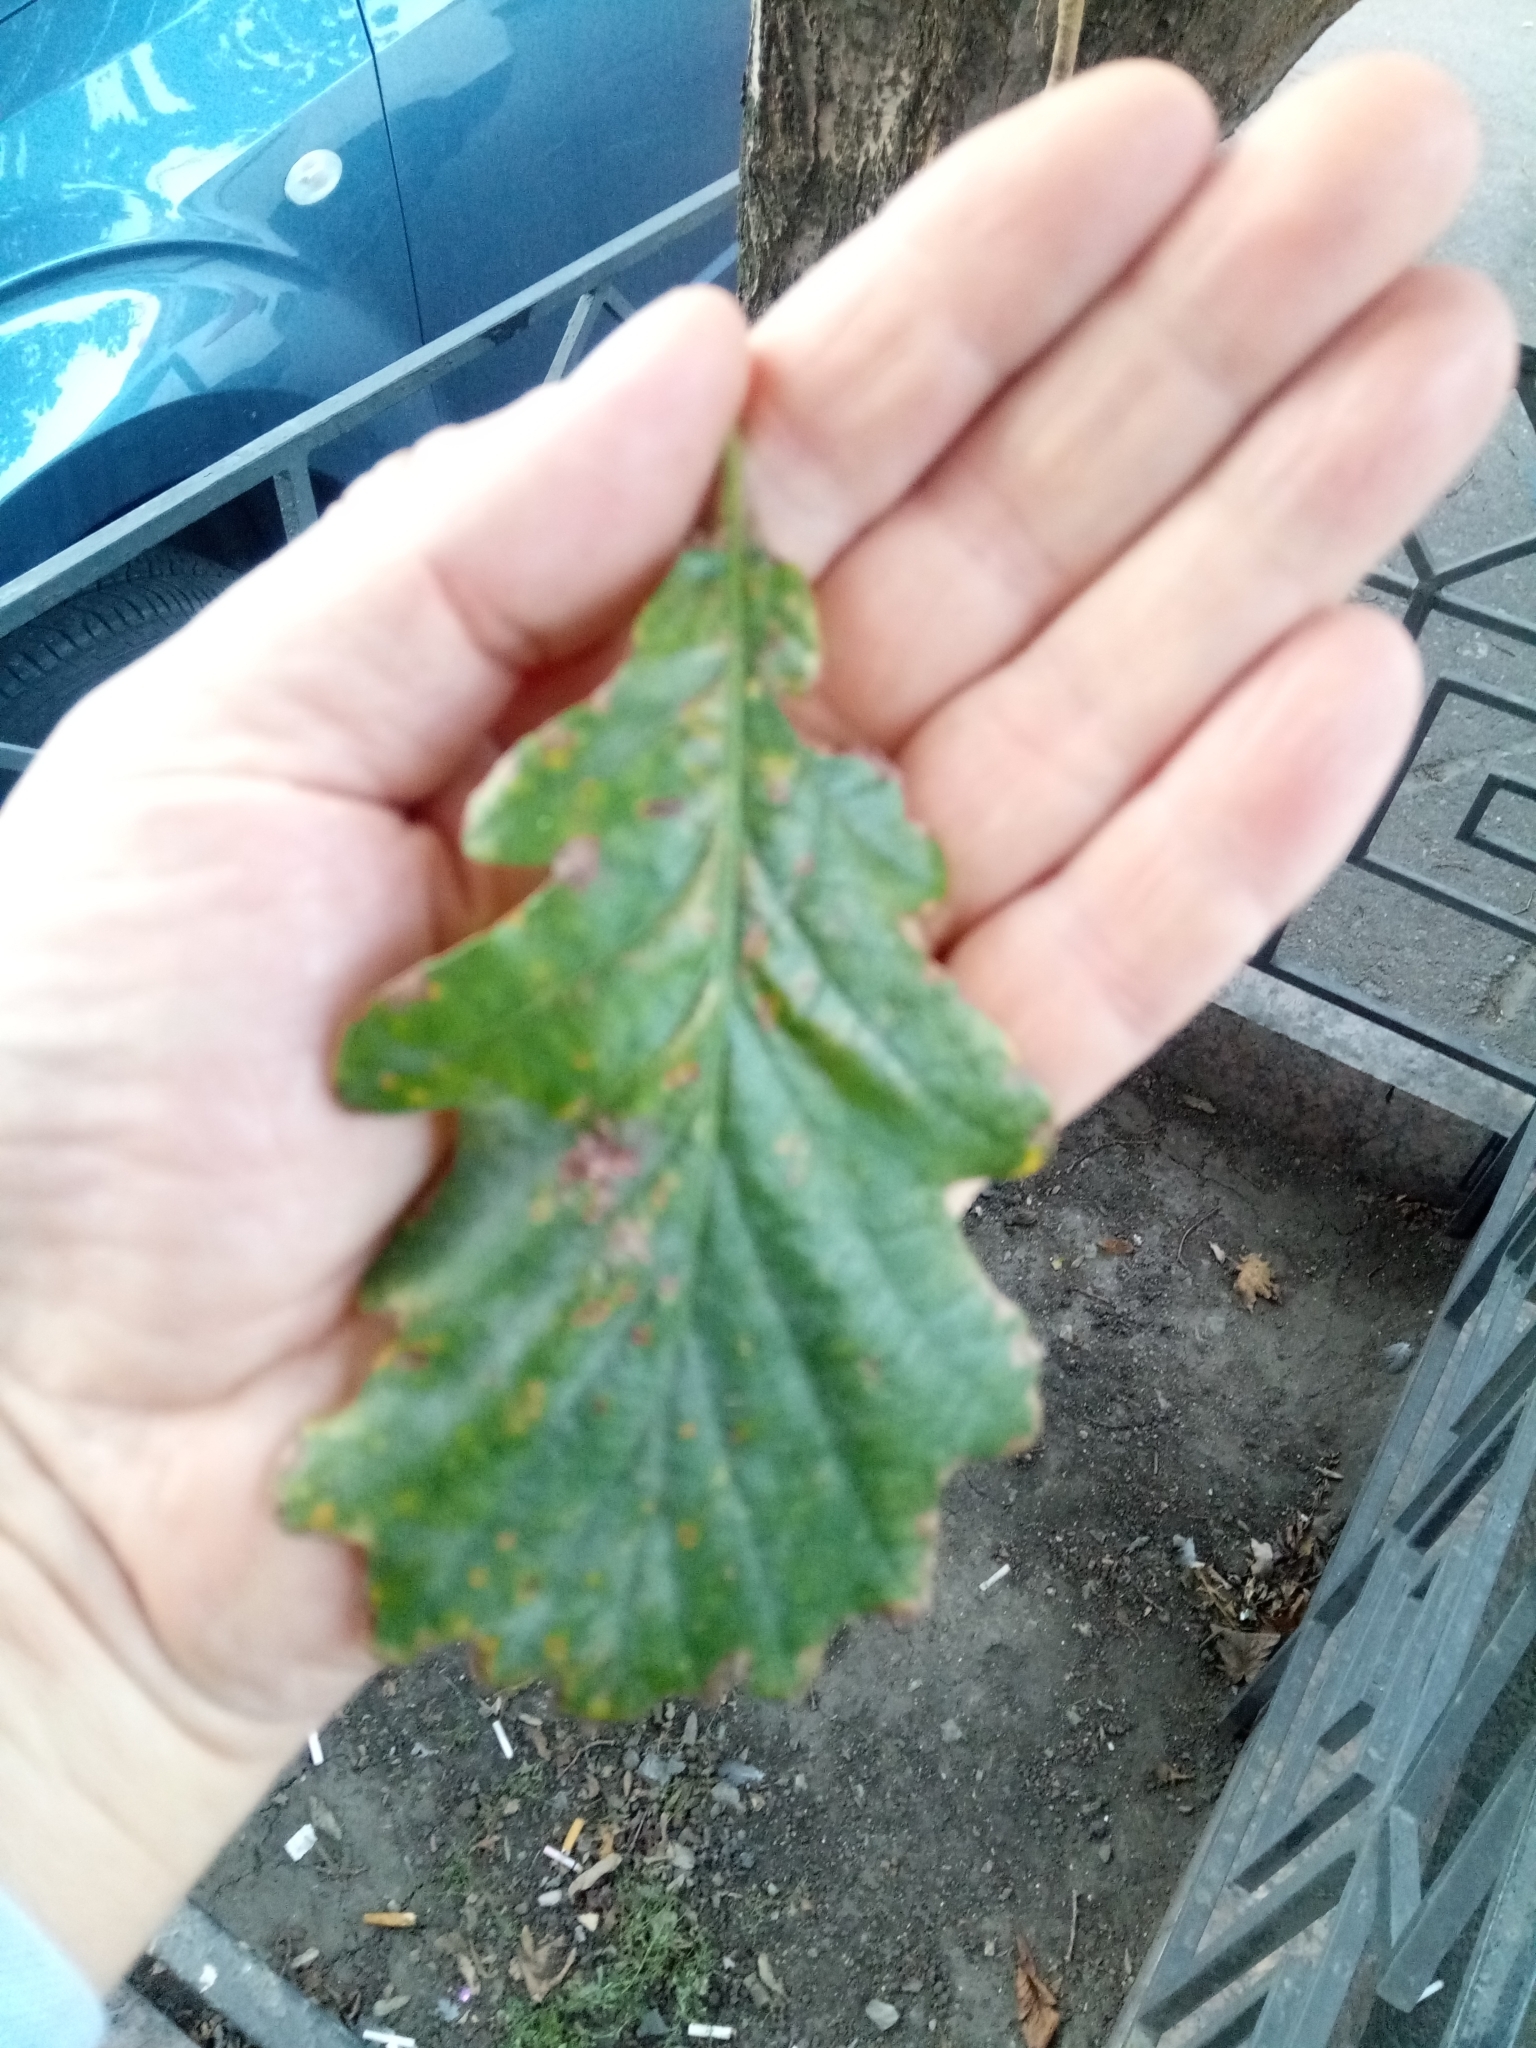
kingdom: Plantae
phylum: Tracheophyta
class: Magnoliopsida
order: Fagales
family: Fagaceae
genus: Quercus
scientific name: Quercus robur
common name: Pedunculate oak
